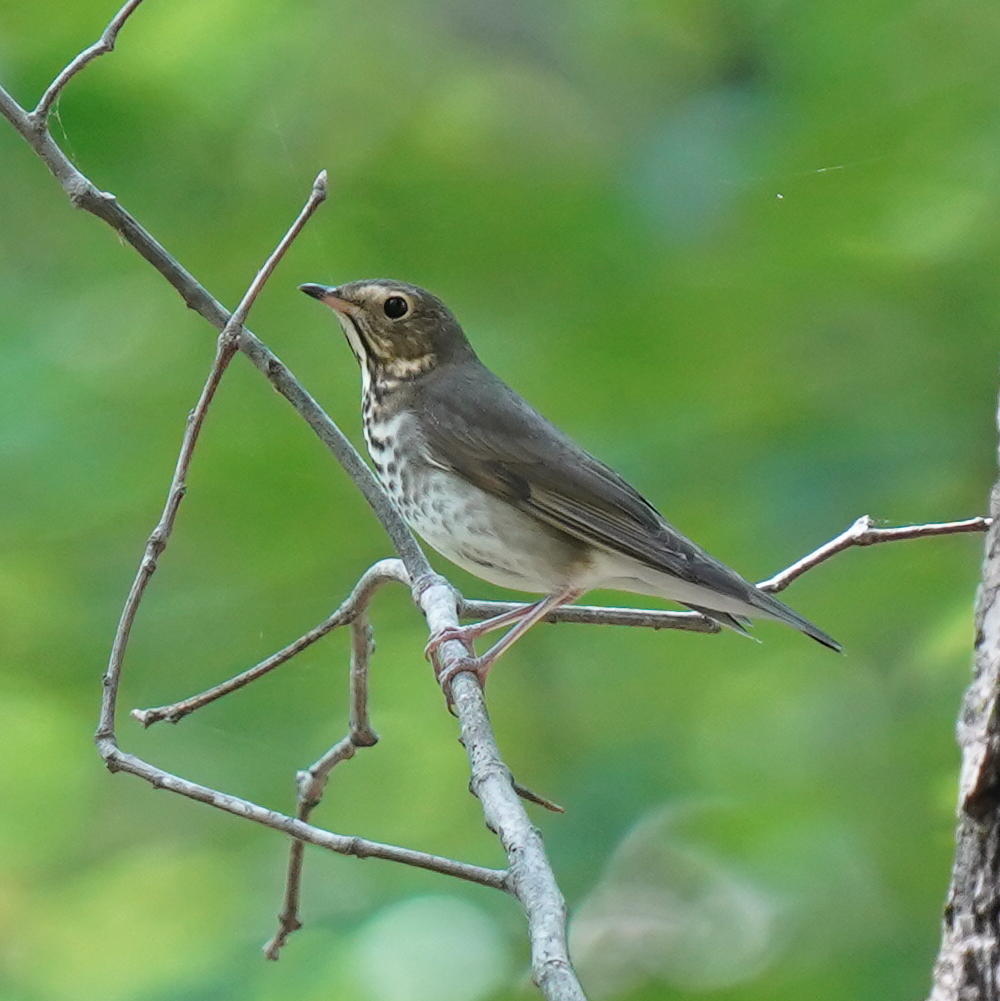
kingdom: Animalia
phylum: Chordata
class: Aves
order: Passeriformes
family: Turdidae
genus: Catharus
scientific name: Catharus ustulatus
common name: Swainson's thrush
